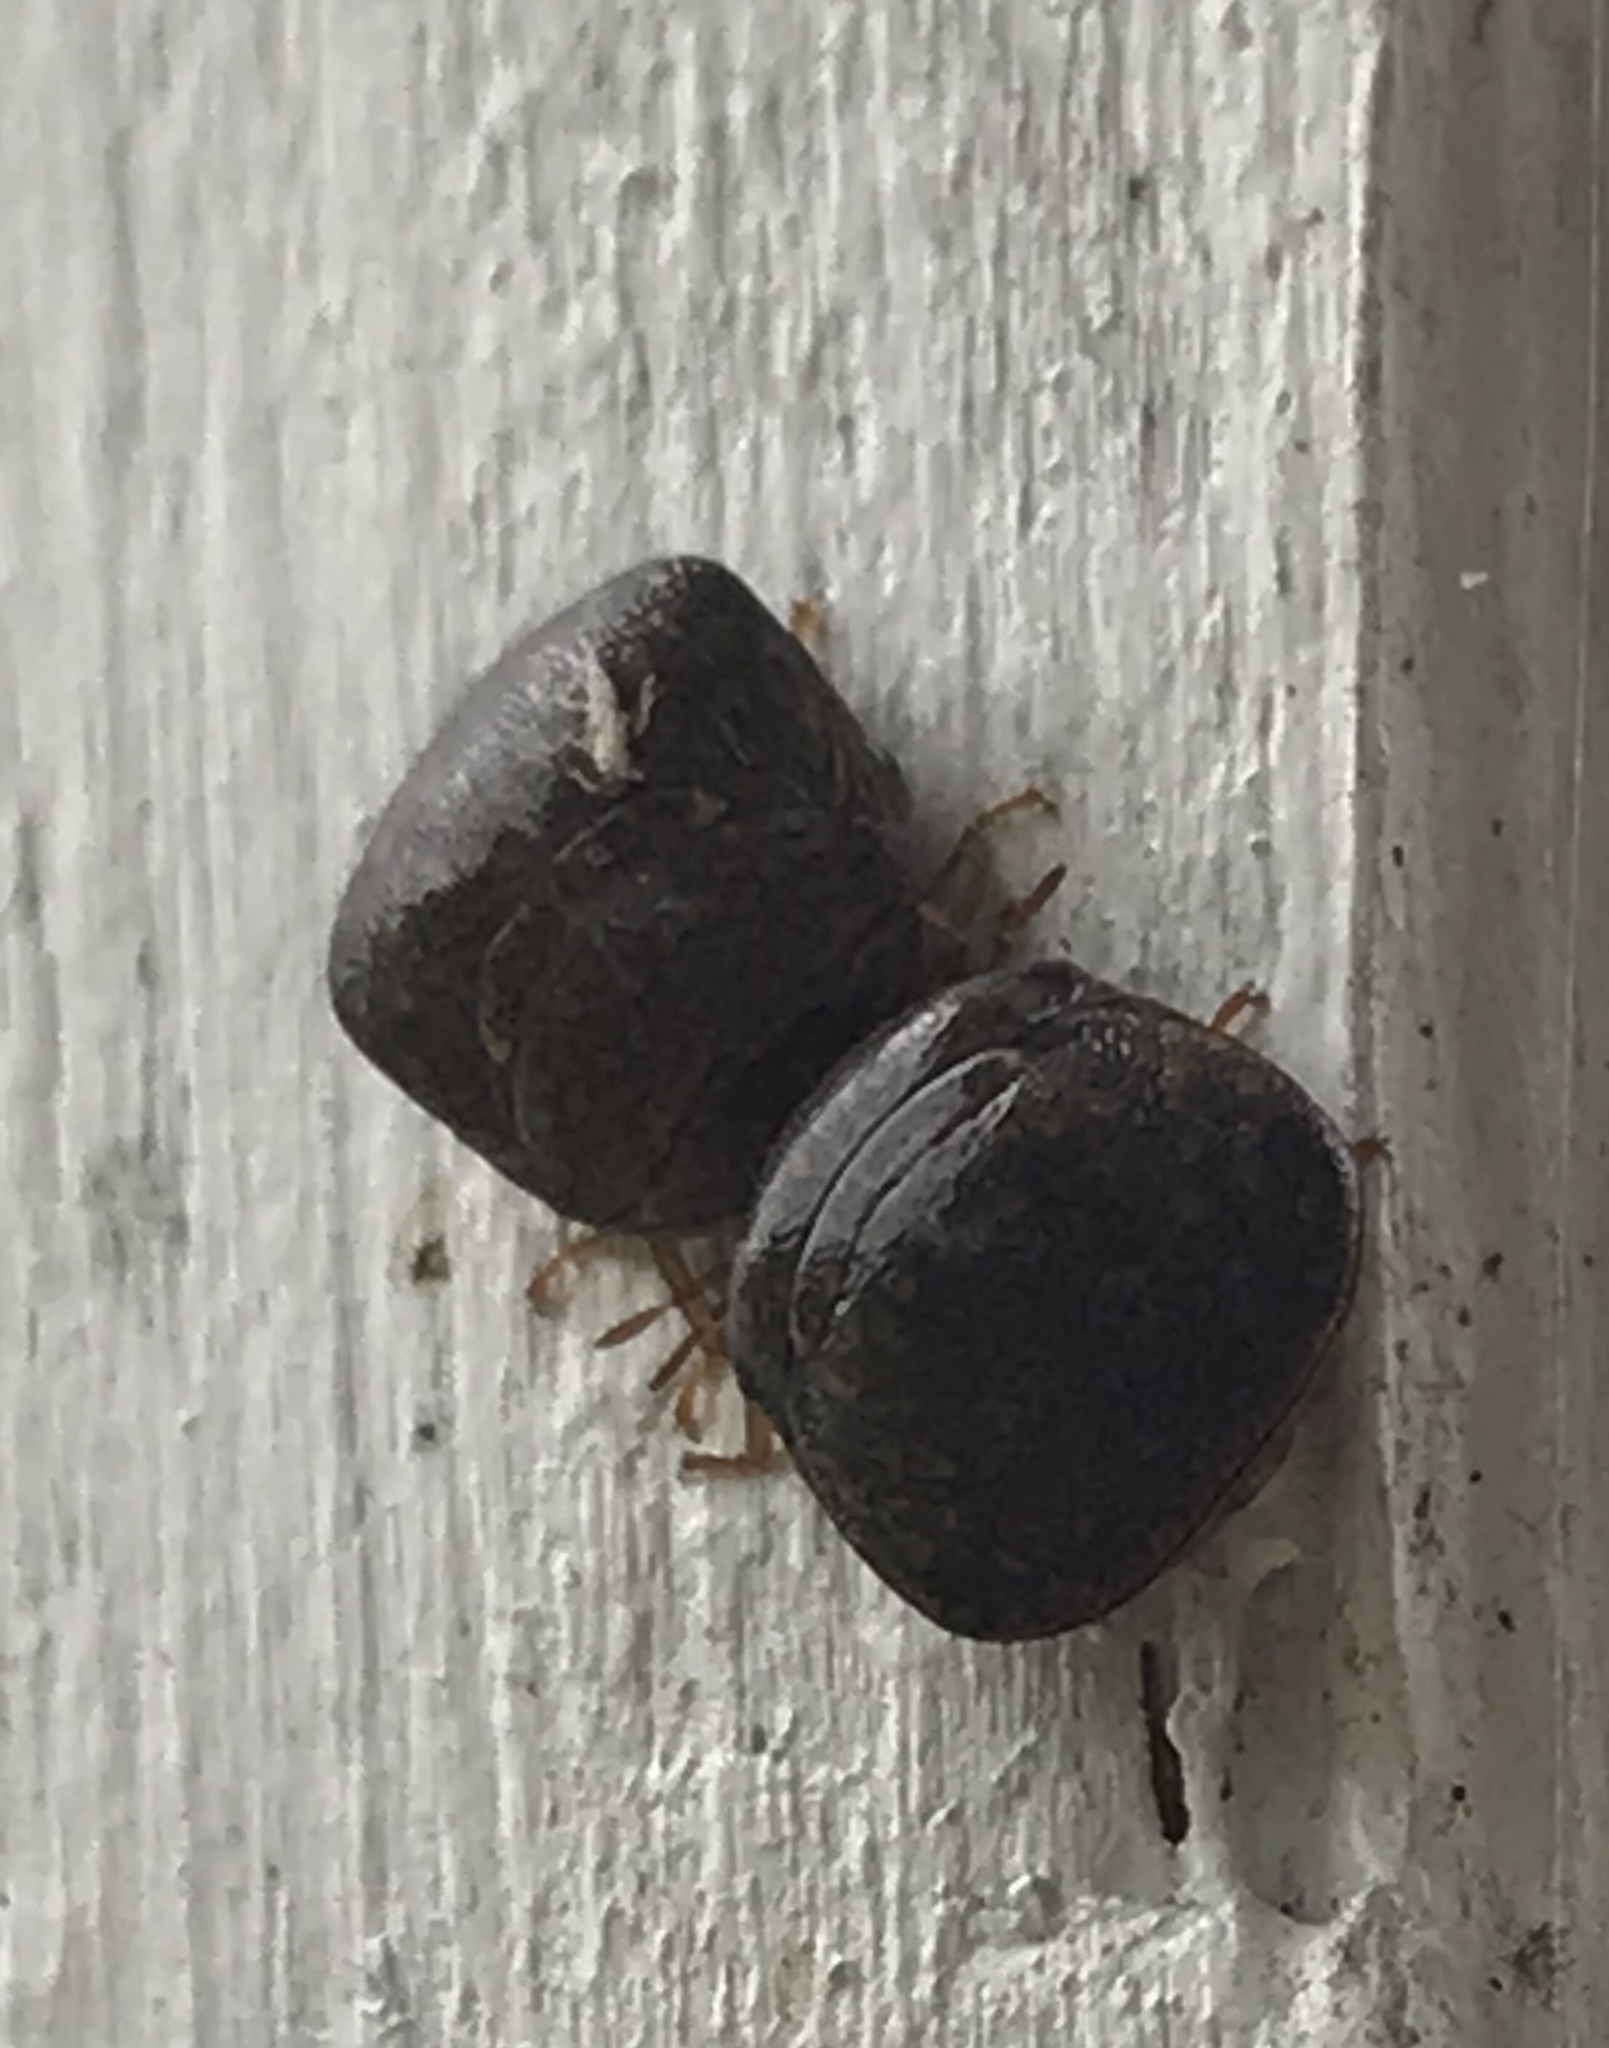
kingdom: Animalia
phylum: Arthropoda
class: Insecta
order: Hemiptera
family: Plataspidae
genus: Megacopta
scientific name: Megacopta cribraria
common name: Bean plataspid
